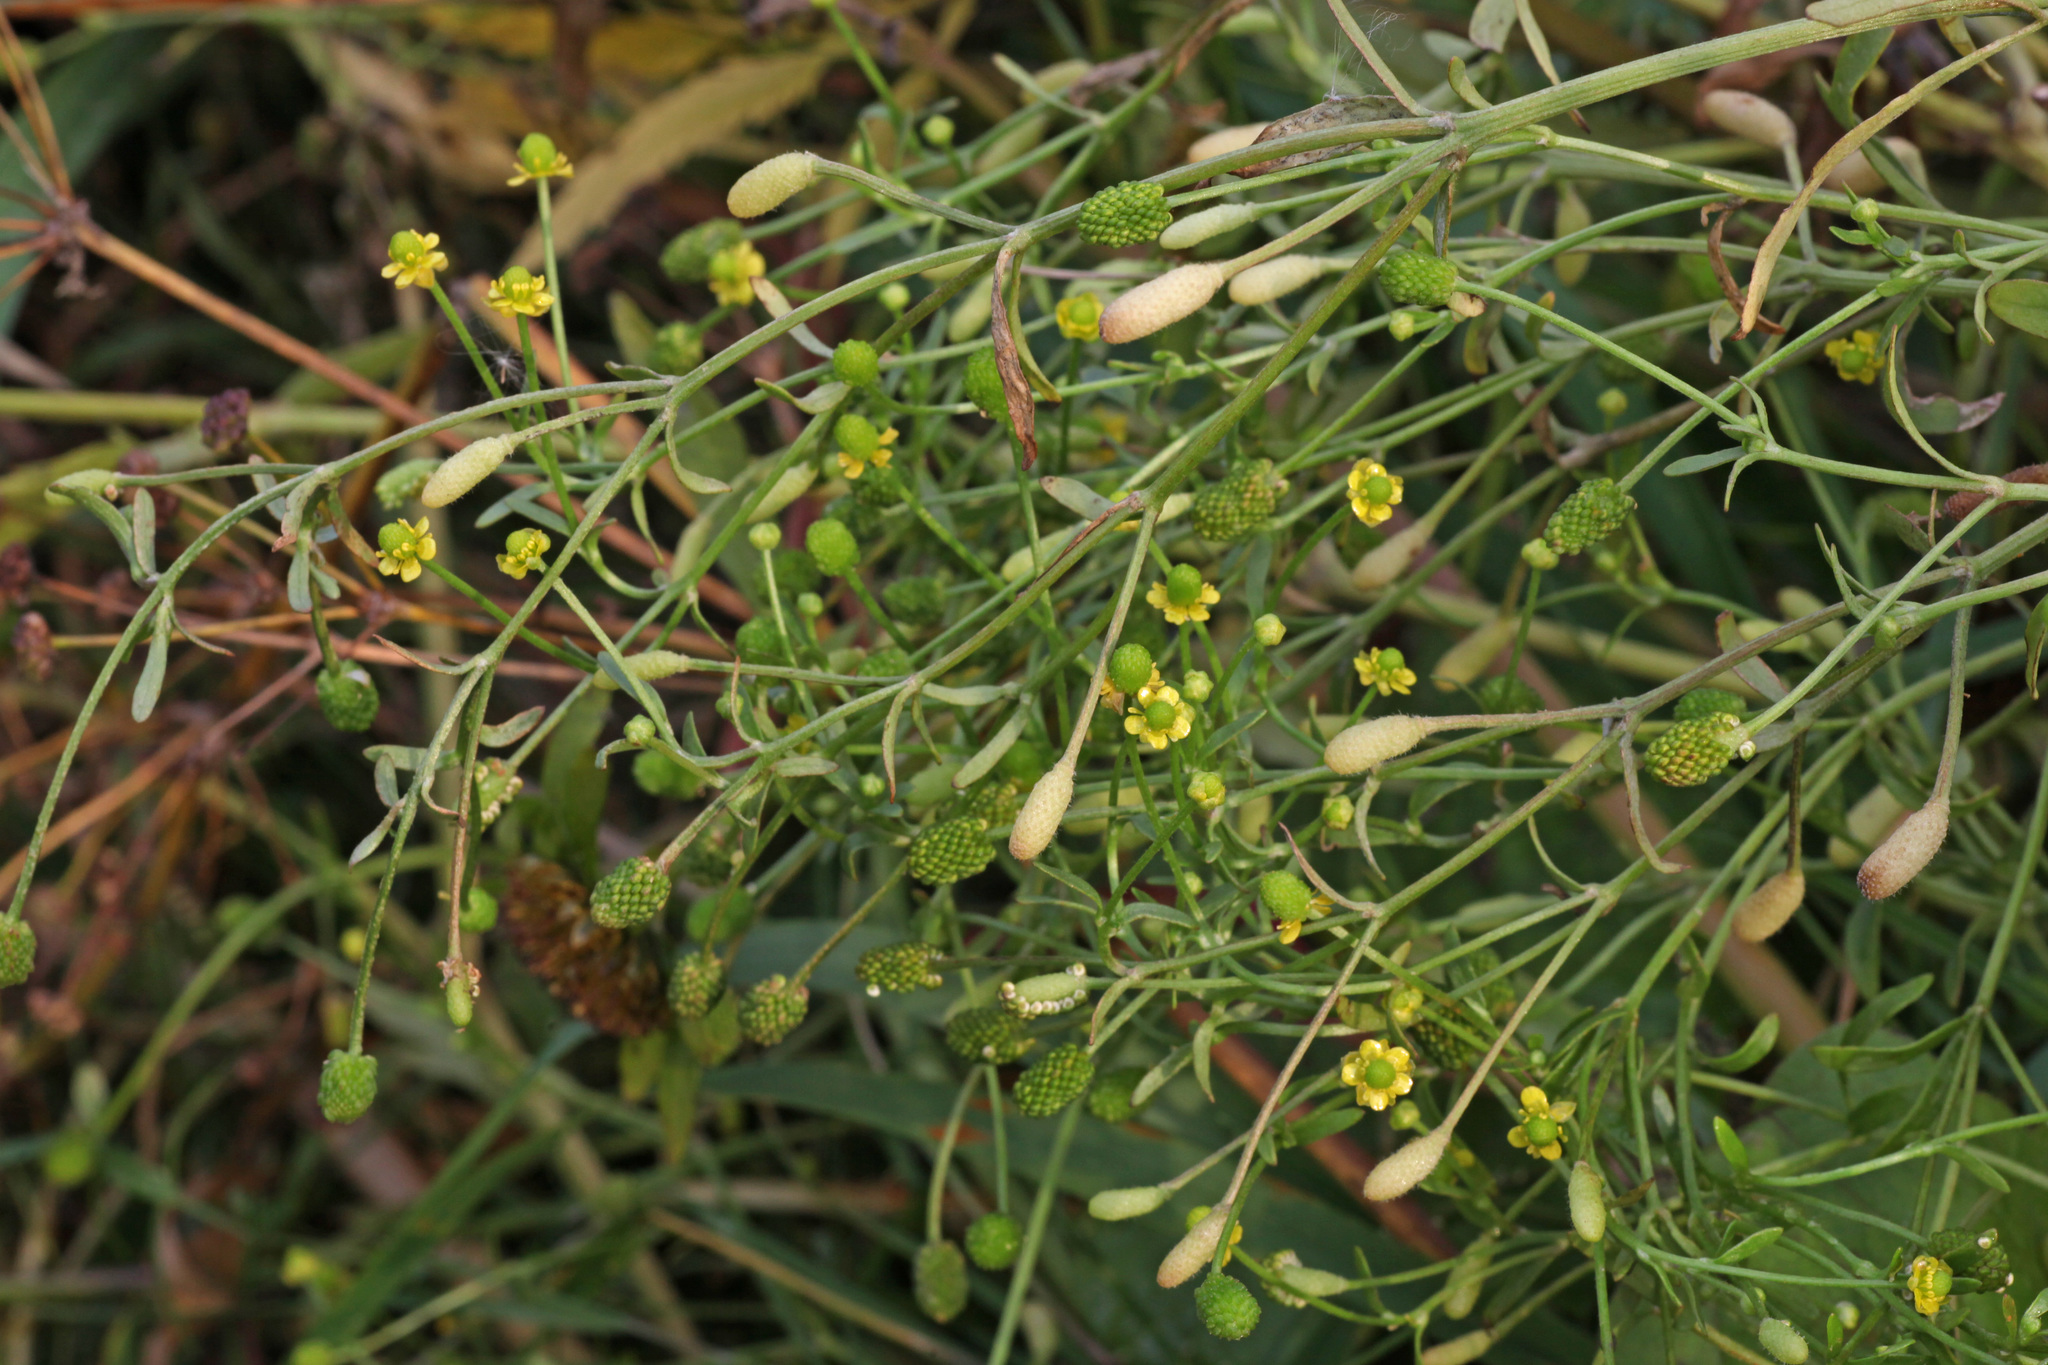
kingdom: Plantae
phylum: Tracheophyta
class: Magnoliopsida
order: Ranunculales
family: Ranunculaceae
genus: Ranunculus
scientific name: Ranunculus sceleratus
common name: Celery-leaved buttercup
